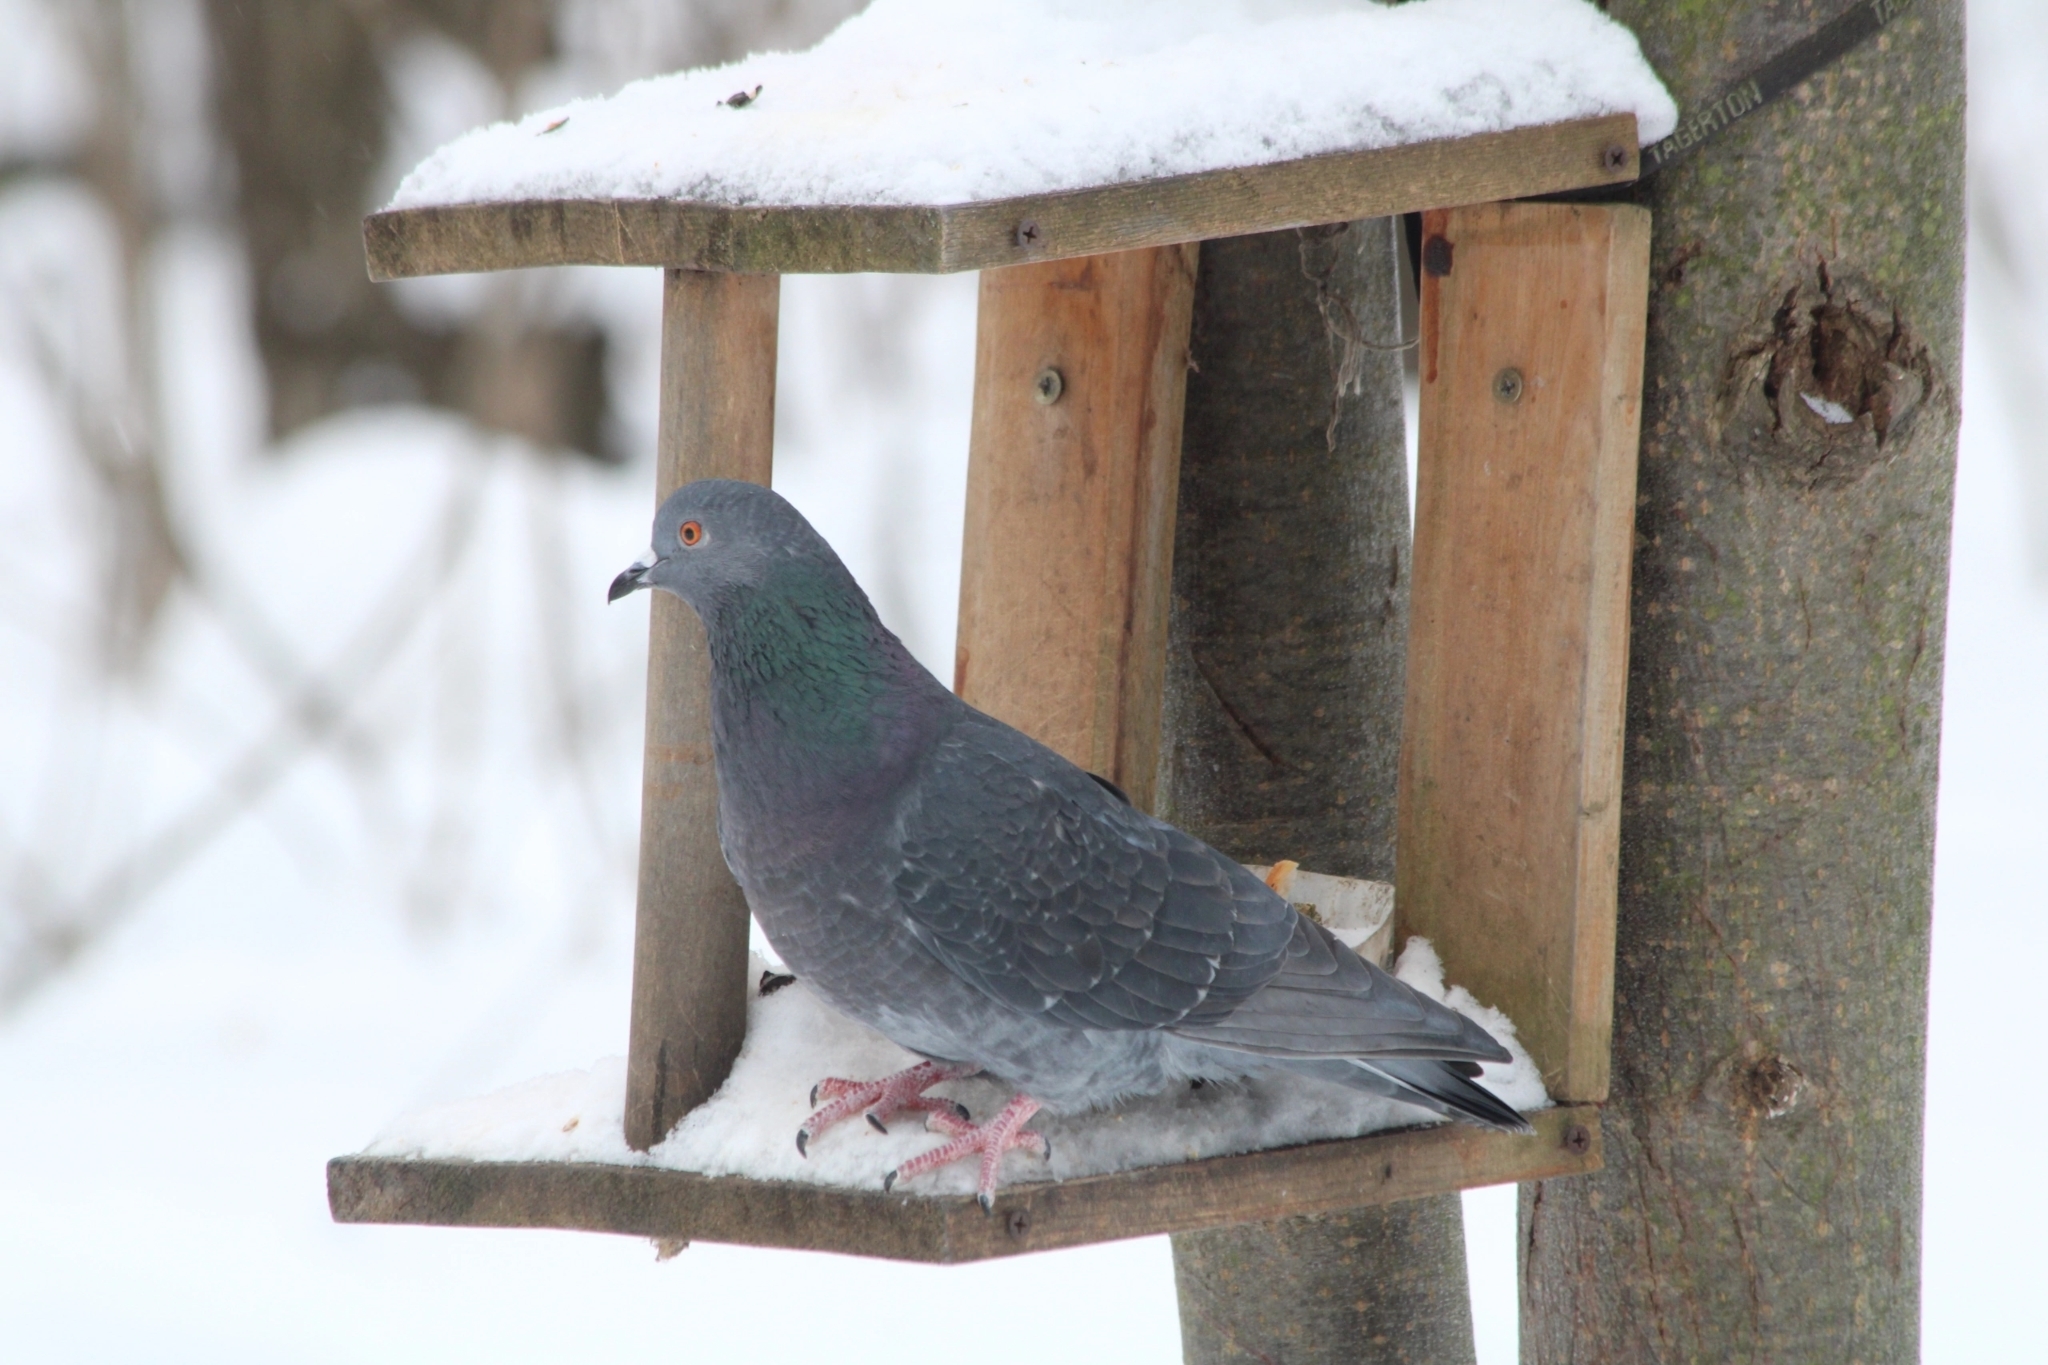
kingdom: Animalia
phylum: Chordata
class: Aves
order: Columbiformes
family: Columbidae
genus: Columba
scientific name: Columba livia
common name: Rock pigeon
